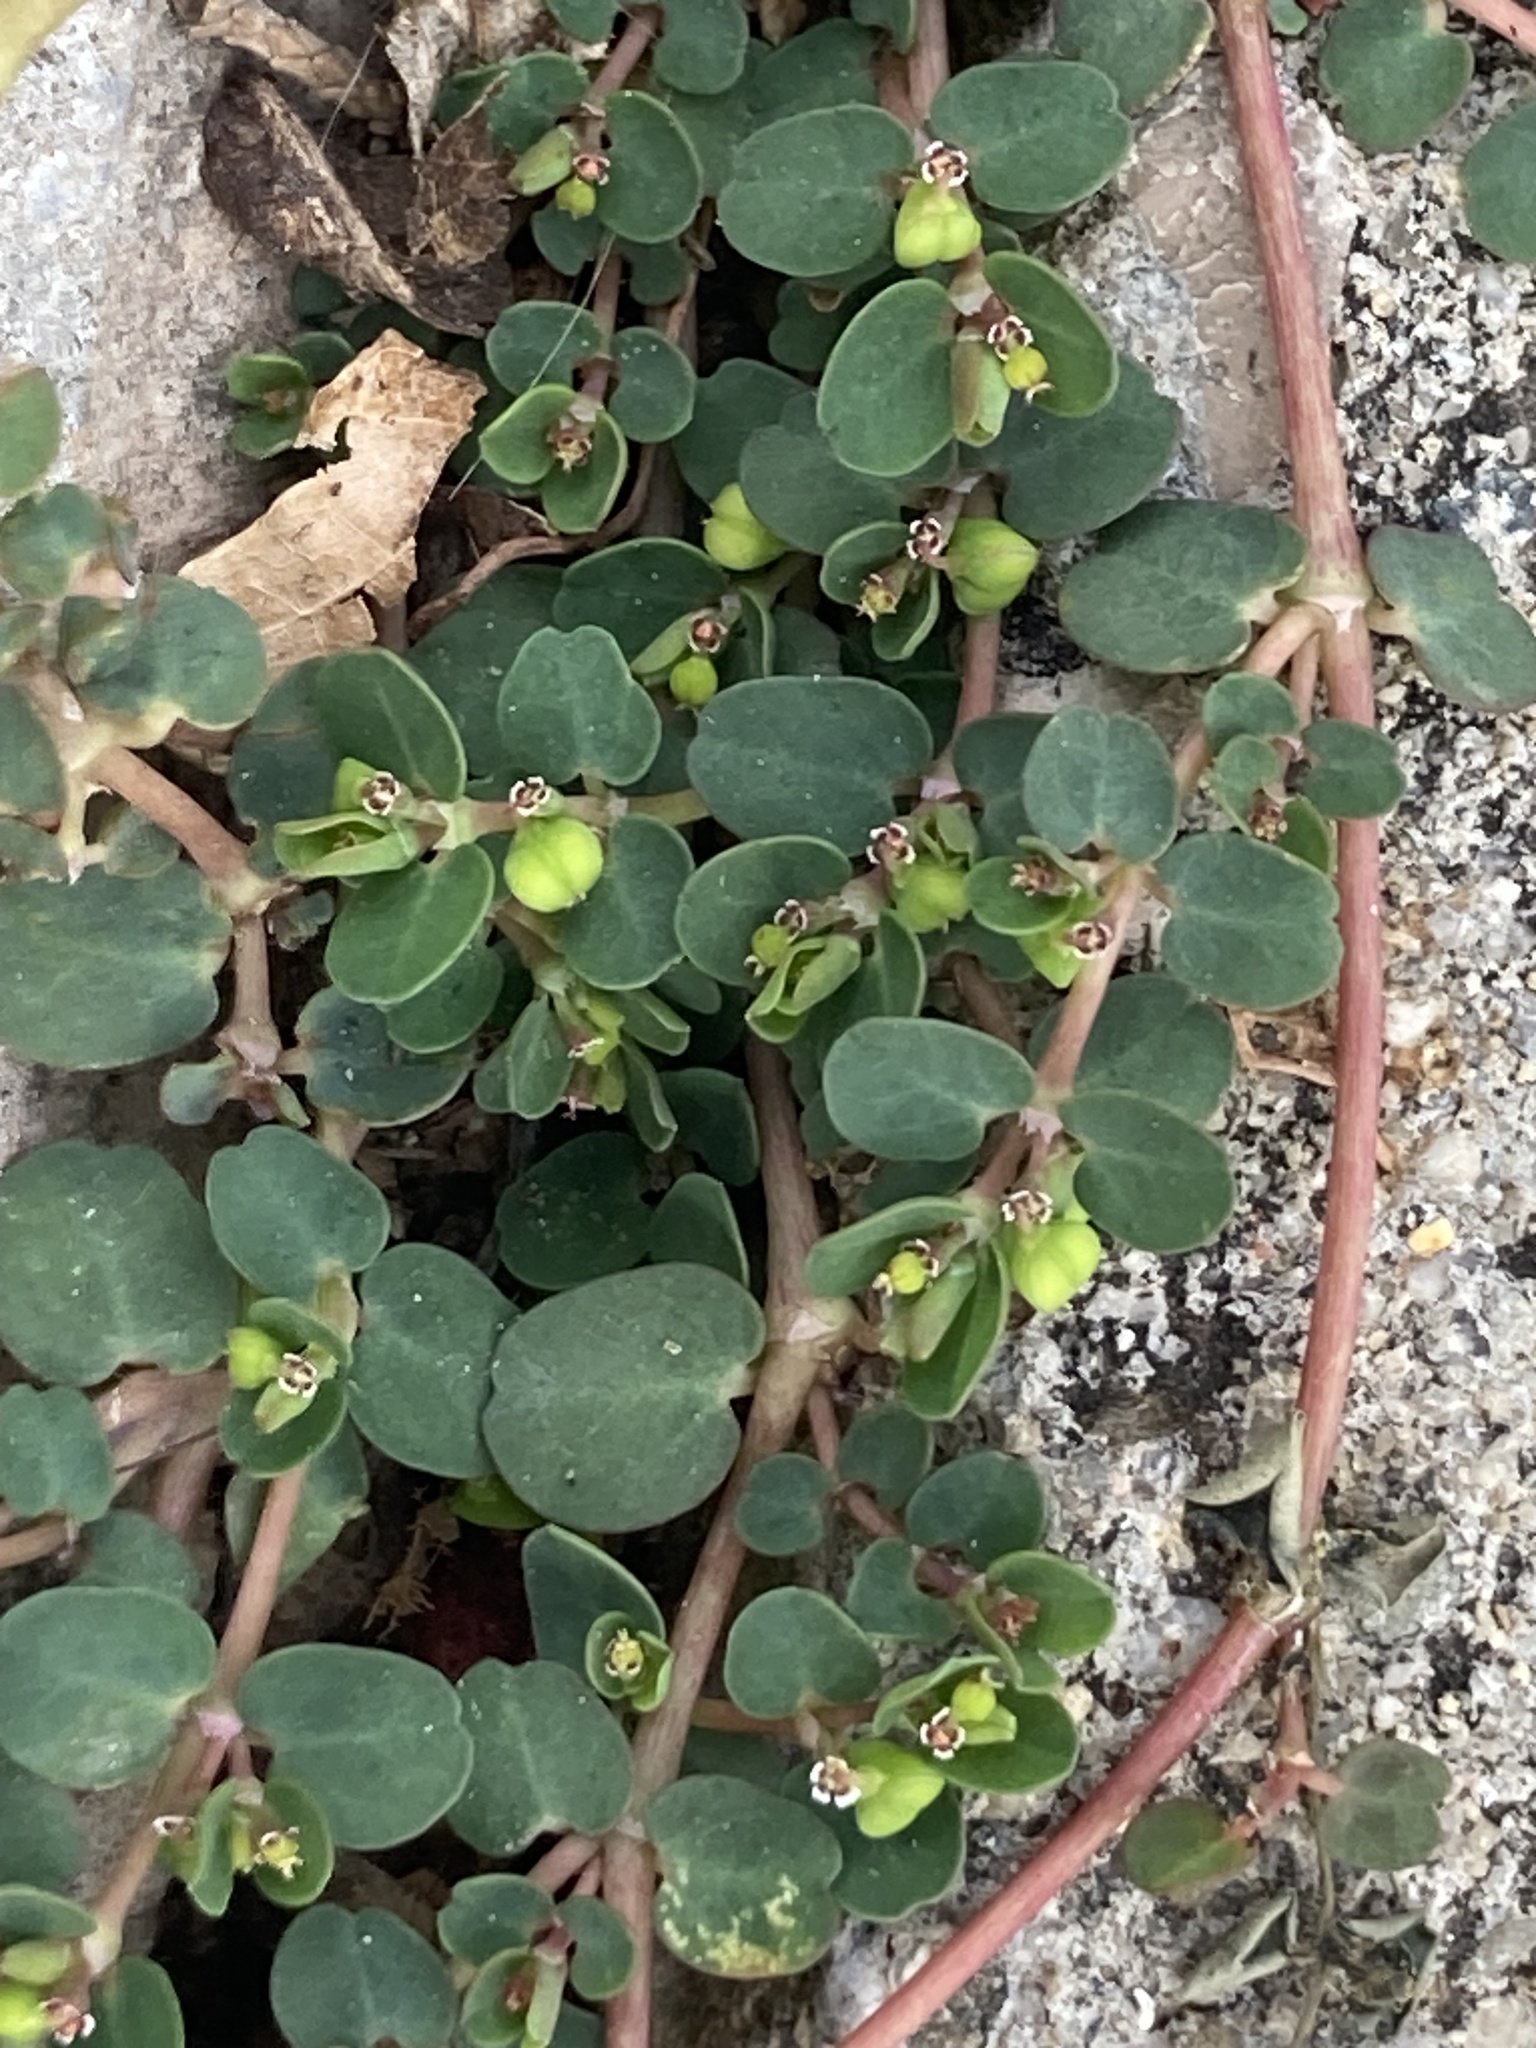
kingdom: Plantae
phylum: Tracheophyta
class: Magnoliopsida
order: Malpighiales
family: Euphorbiaceae
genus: Euphorbia
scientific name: Euphorbia serpens
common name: Matted sandmat
